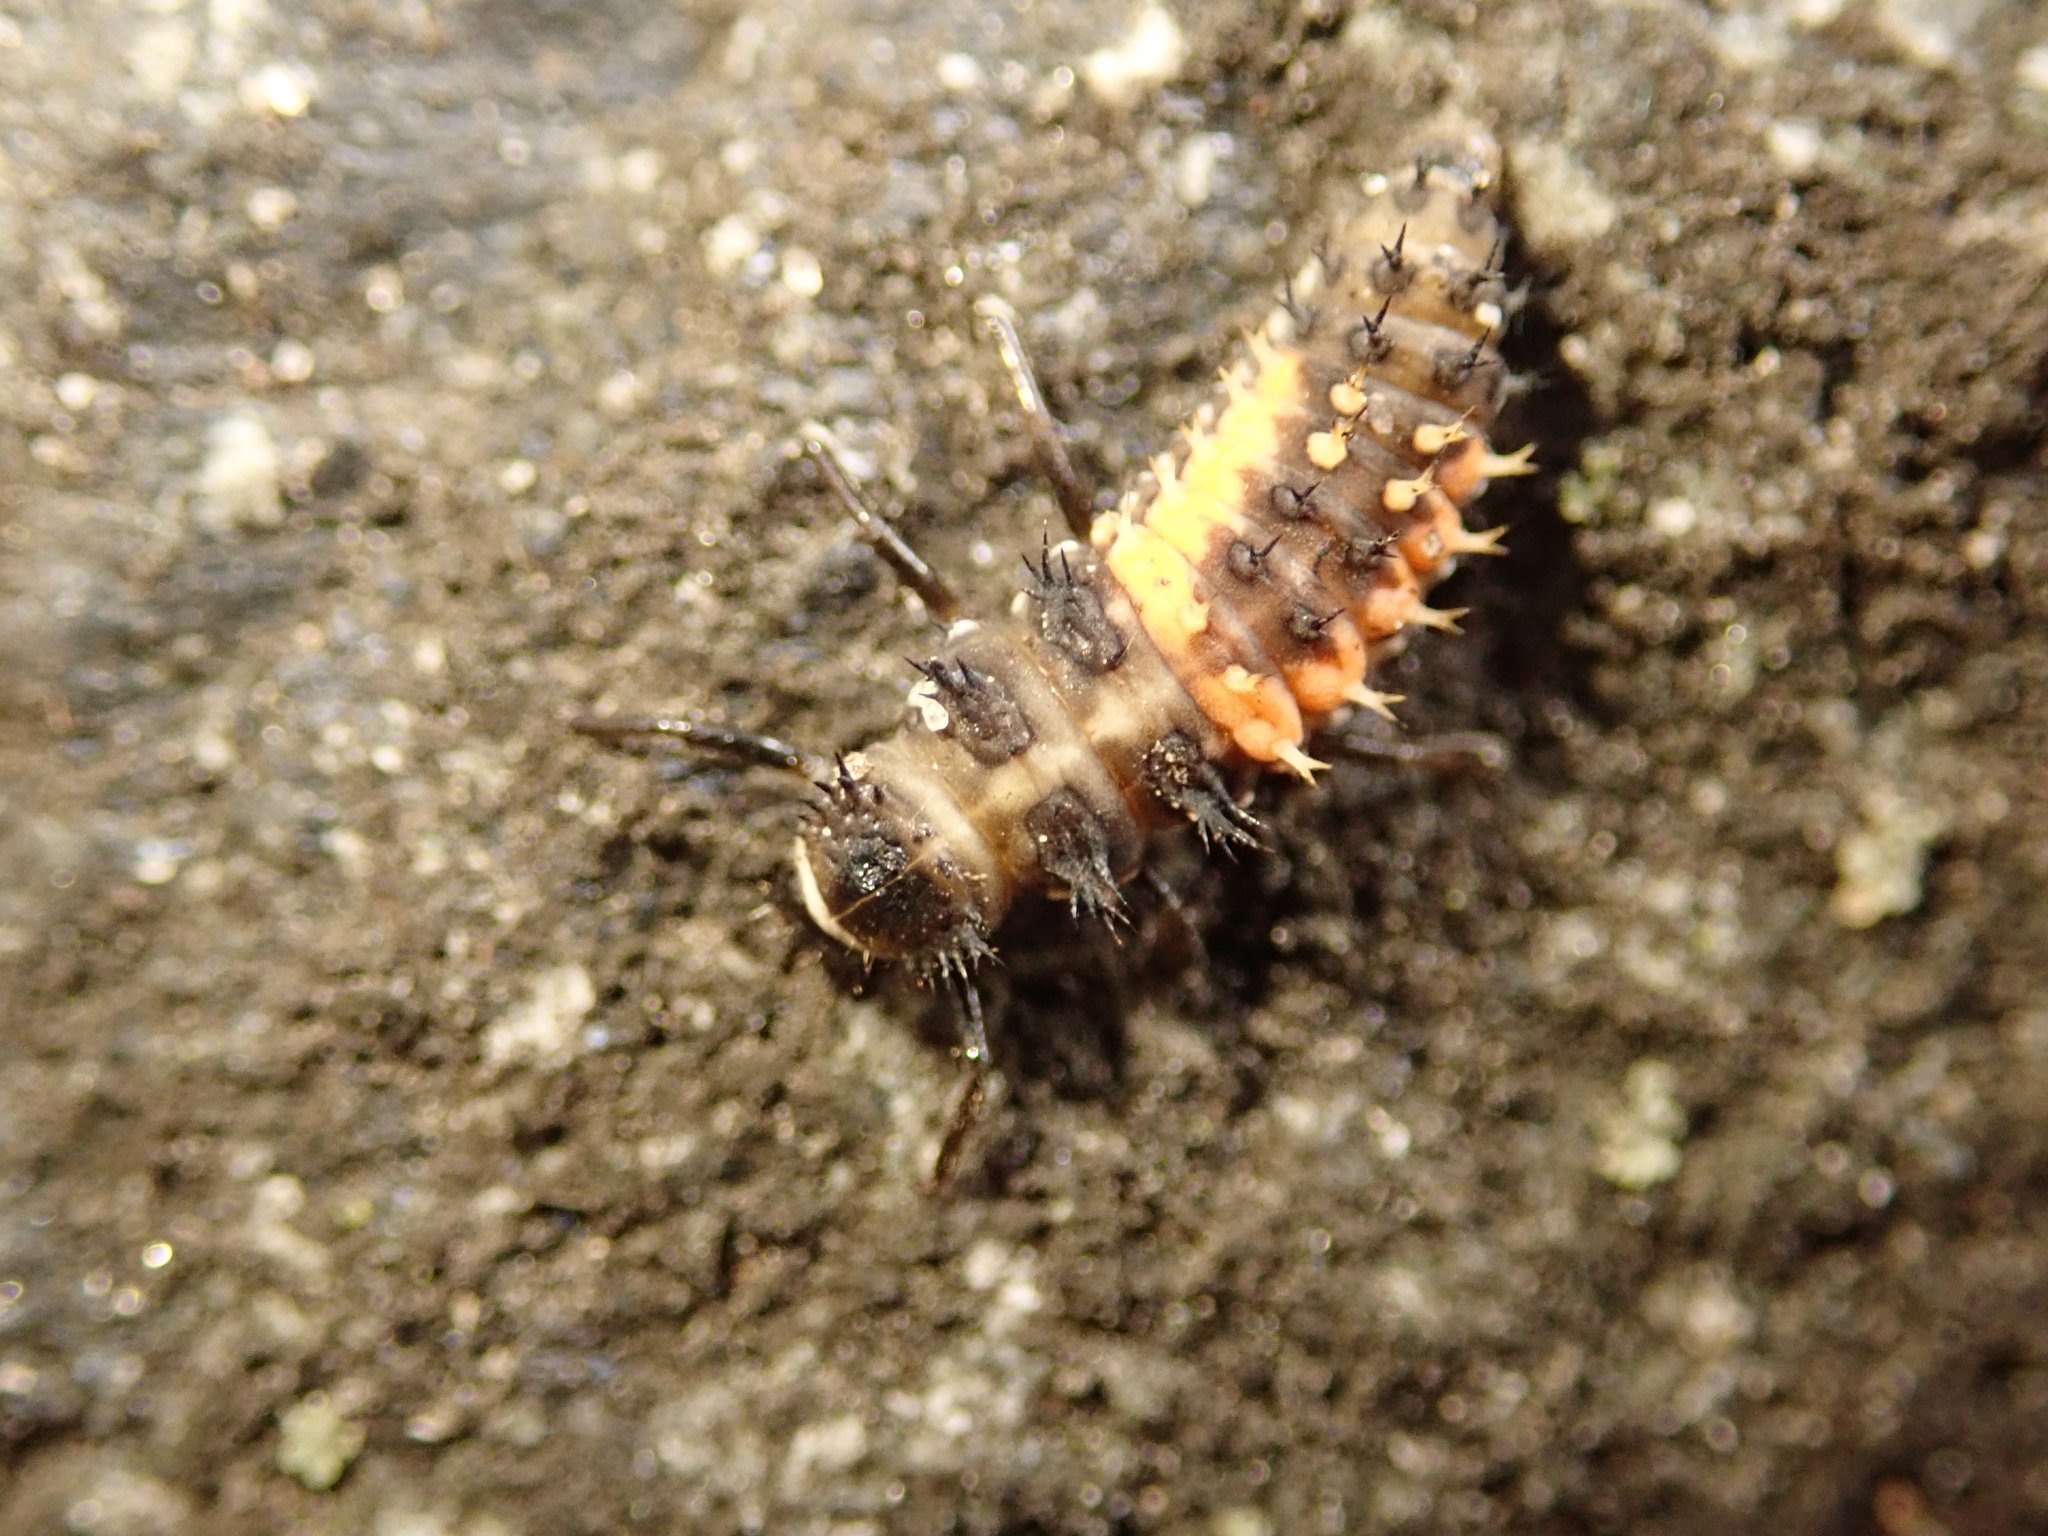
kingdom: Animalia
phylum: Arthropoda
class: Insecta
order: Coleoptera
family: Coccinellidae
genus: Harmonia
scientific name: Harmonia axyridis
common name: Harlequin ladybird
